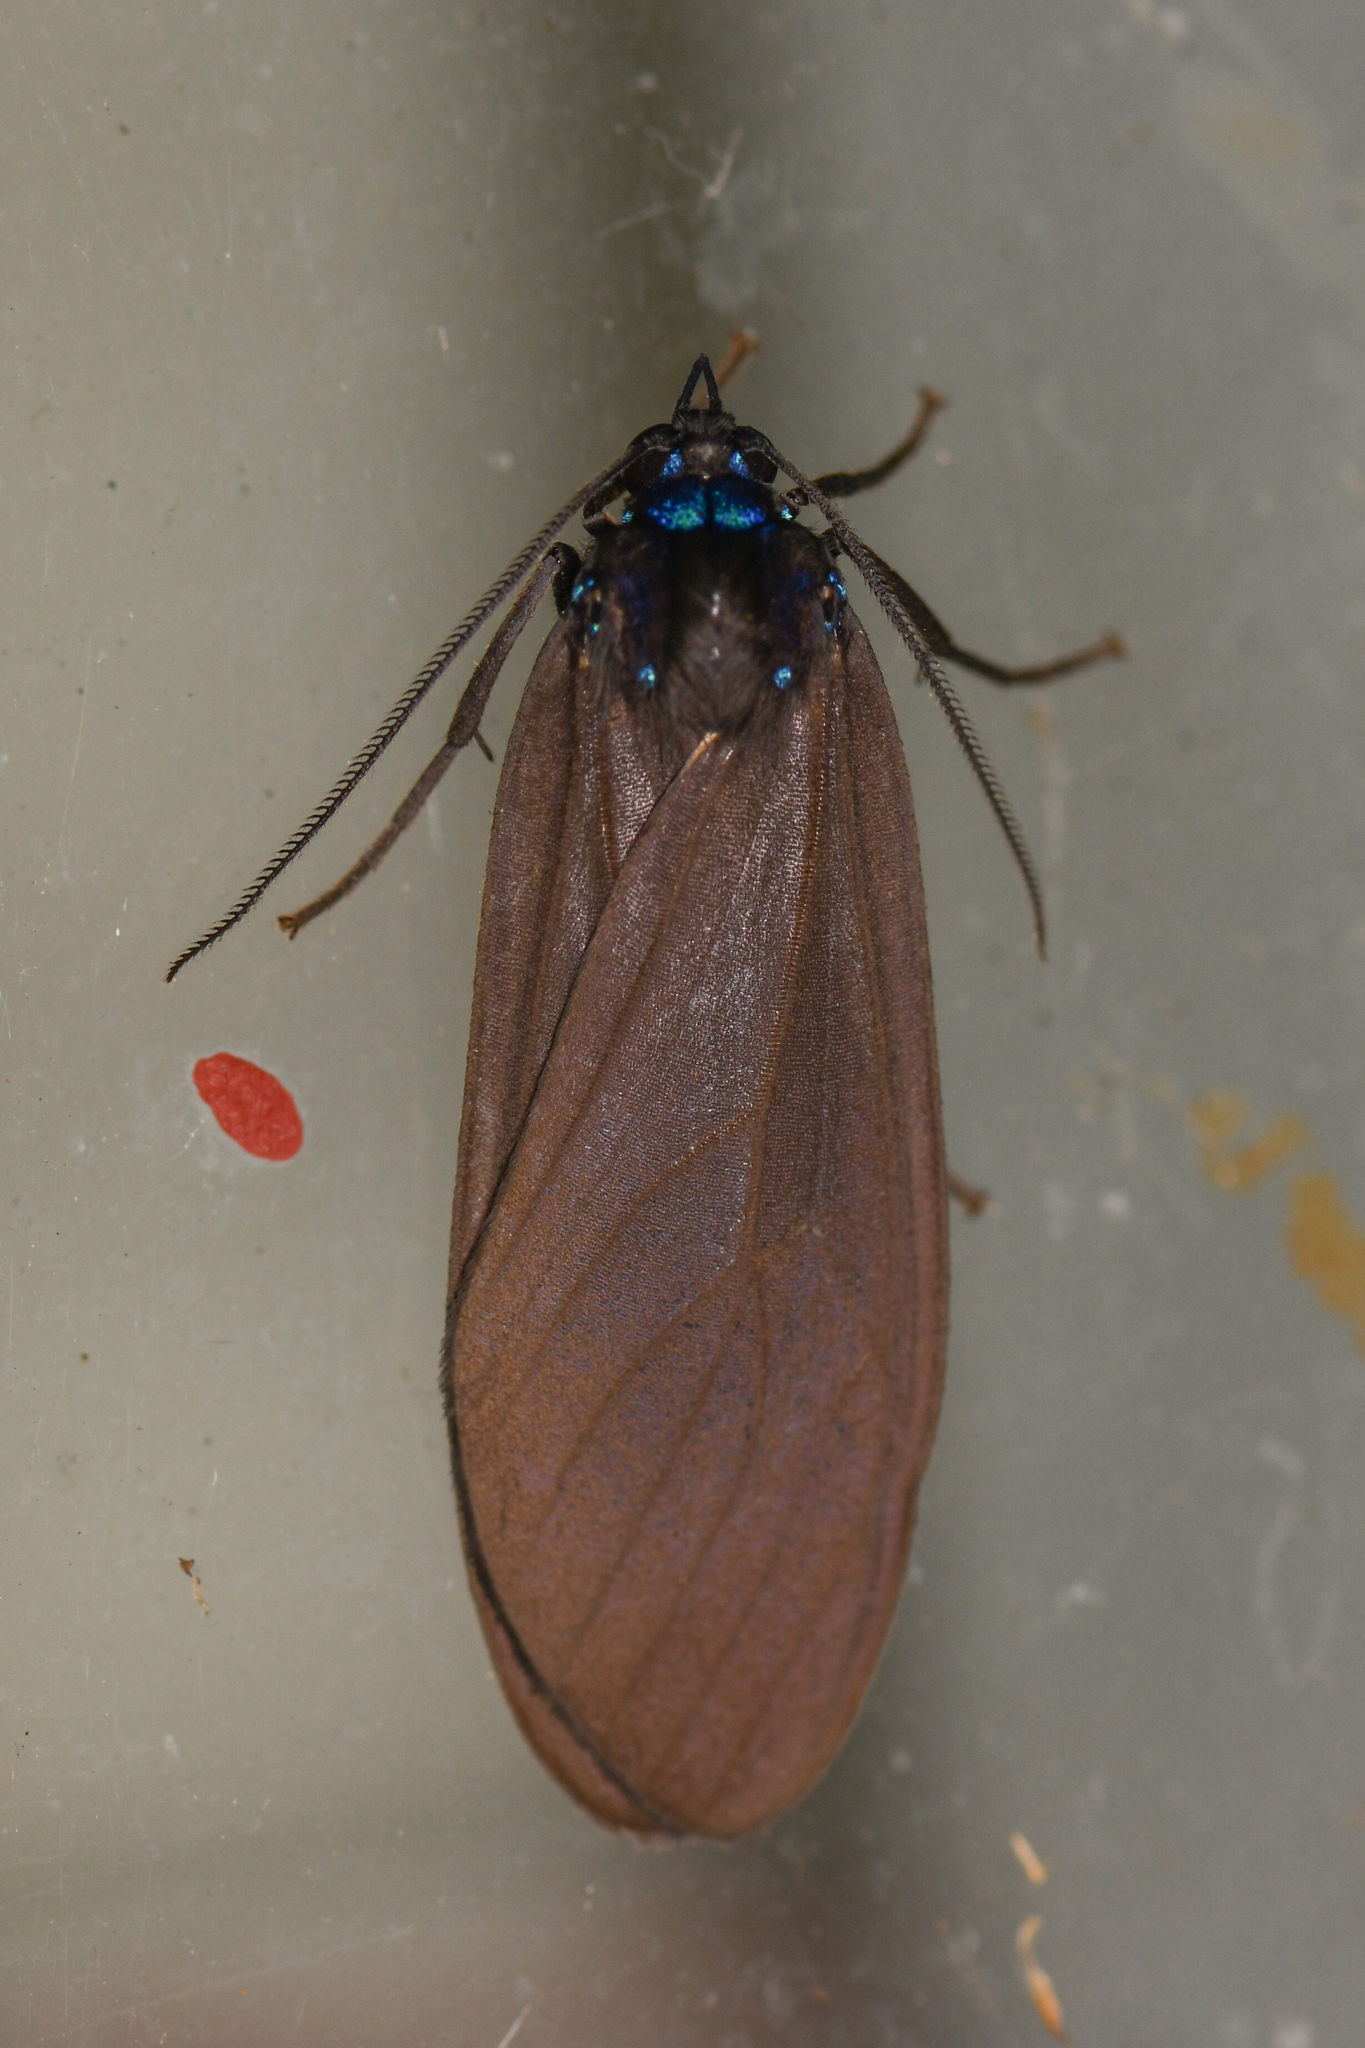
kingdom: Animalia
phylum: Arthropoda
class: Insecta
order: Lepidoptera
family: Erebidae
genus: Opharus
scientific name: Opharus procroides
